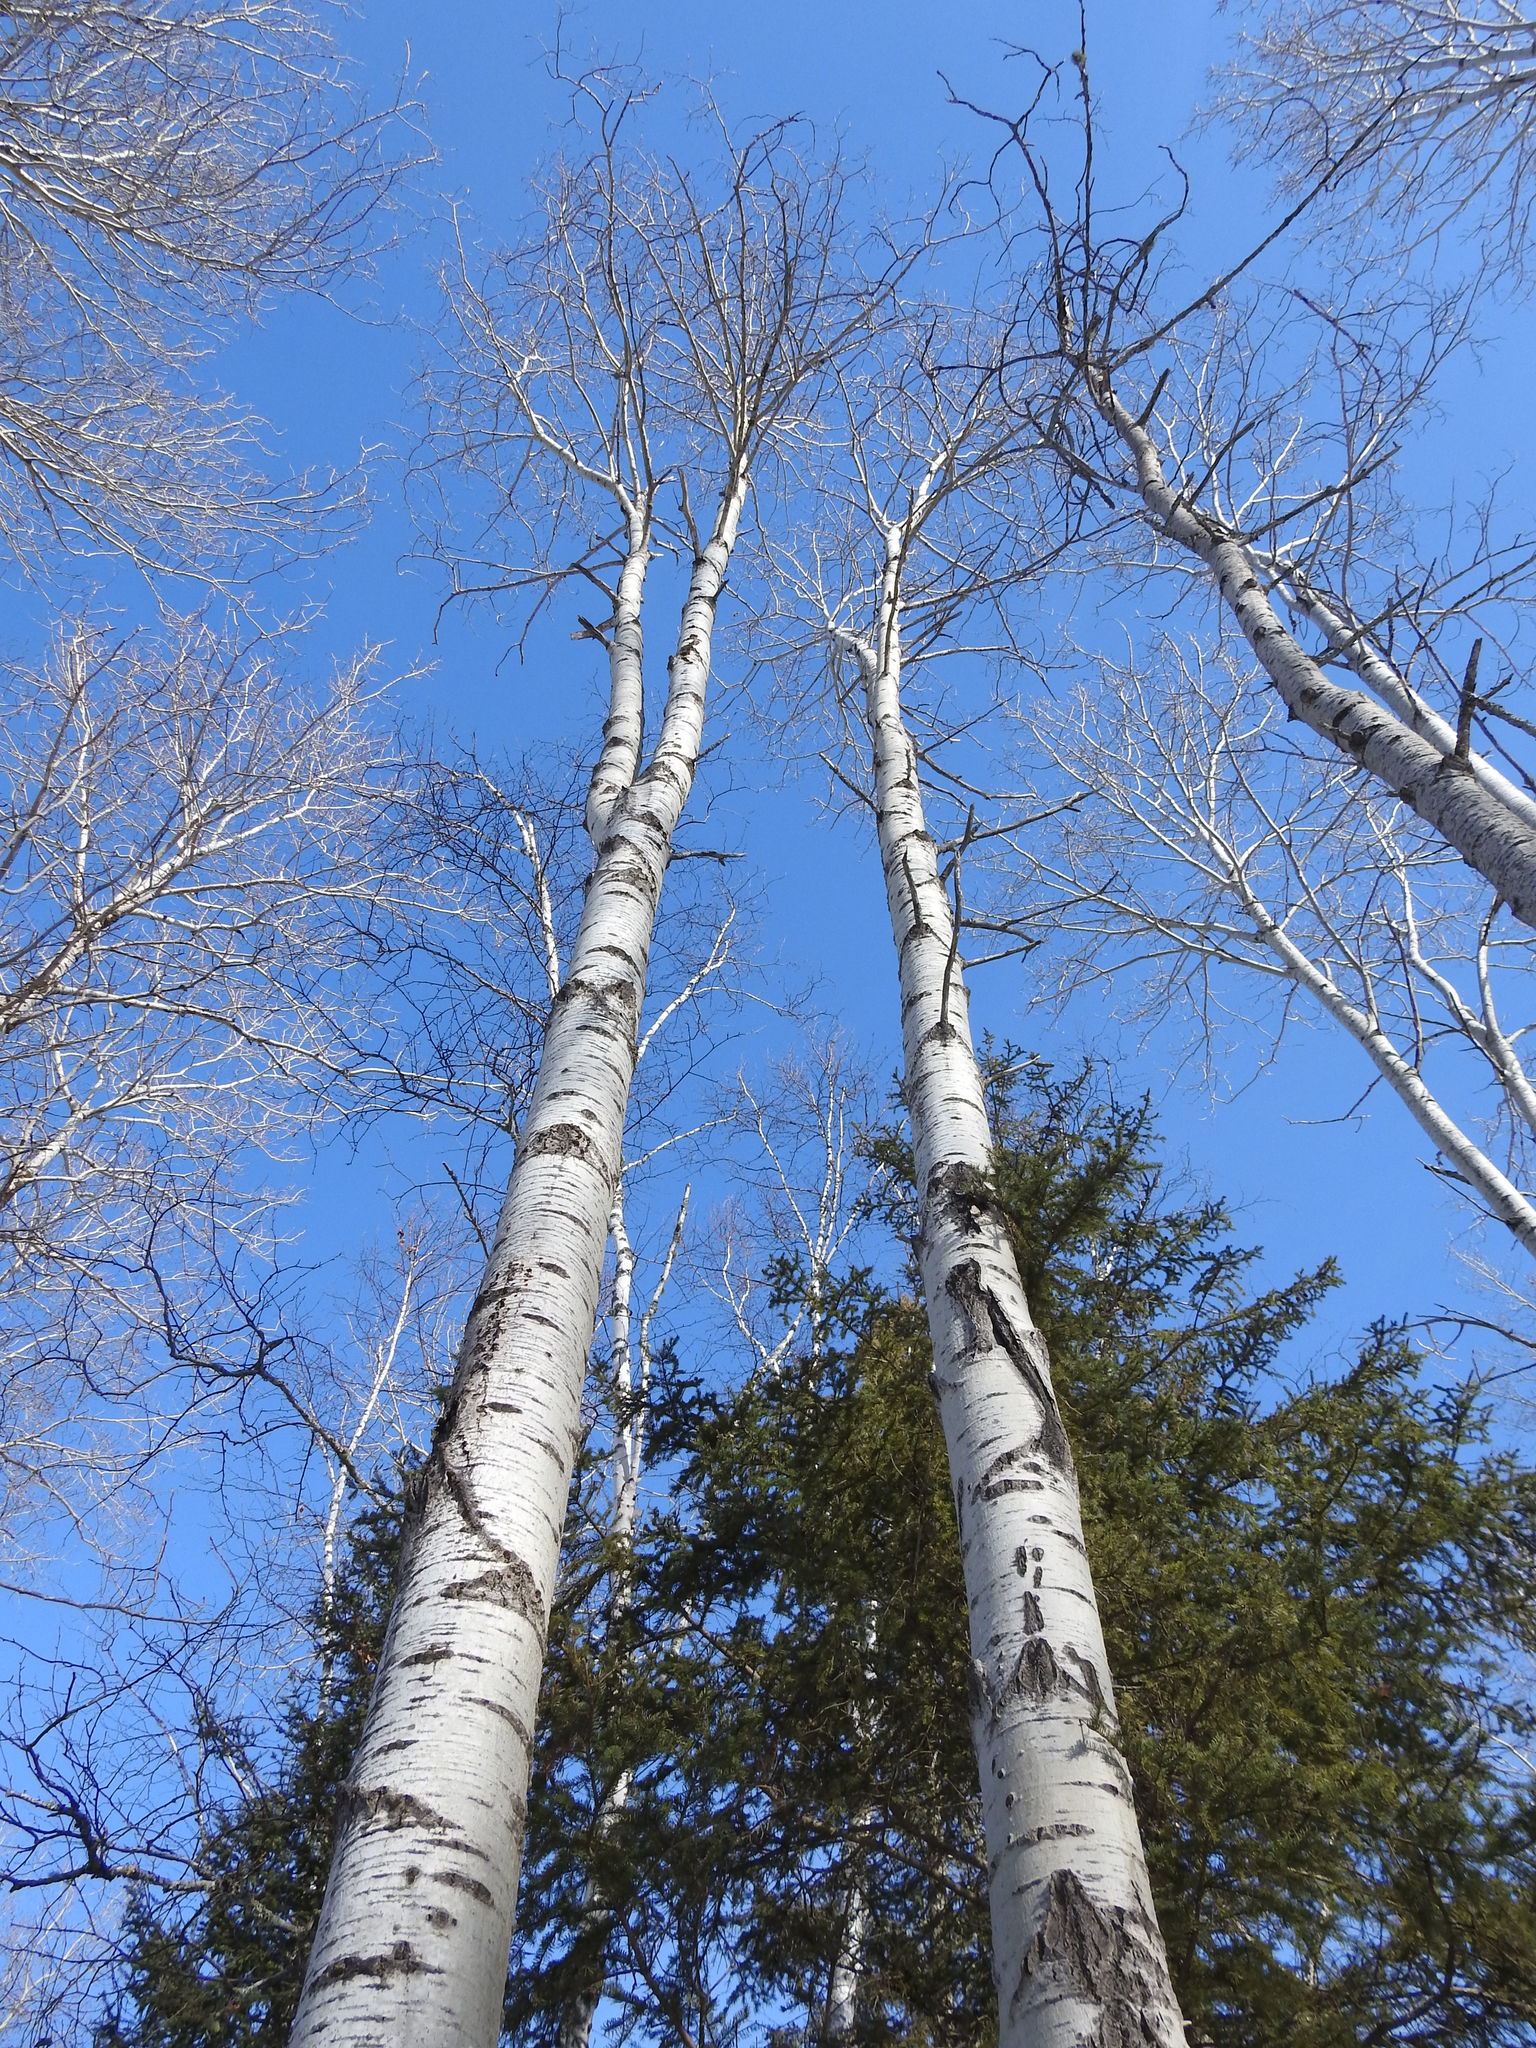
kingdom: Plantae
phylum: Tracheophyta
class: Magnoliopsida
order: Malpighiales
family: Salicaceae
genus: Populus
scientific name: Populus tremuloides
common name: Quaking aspen
